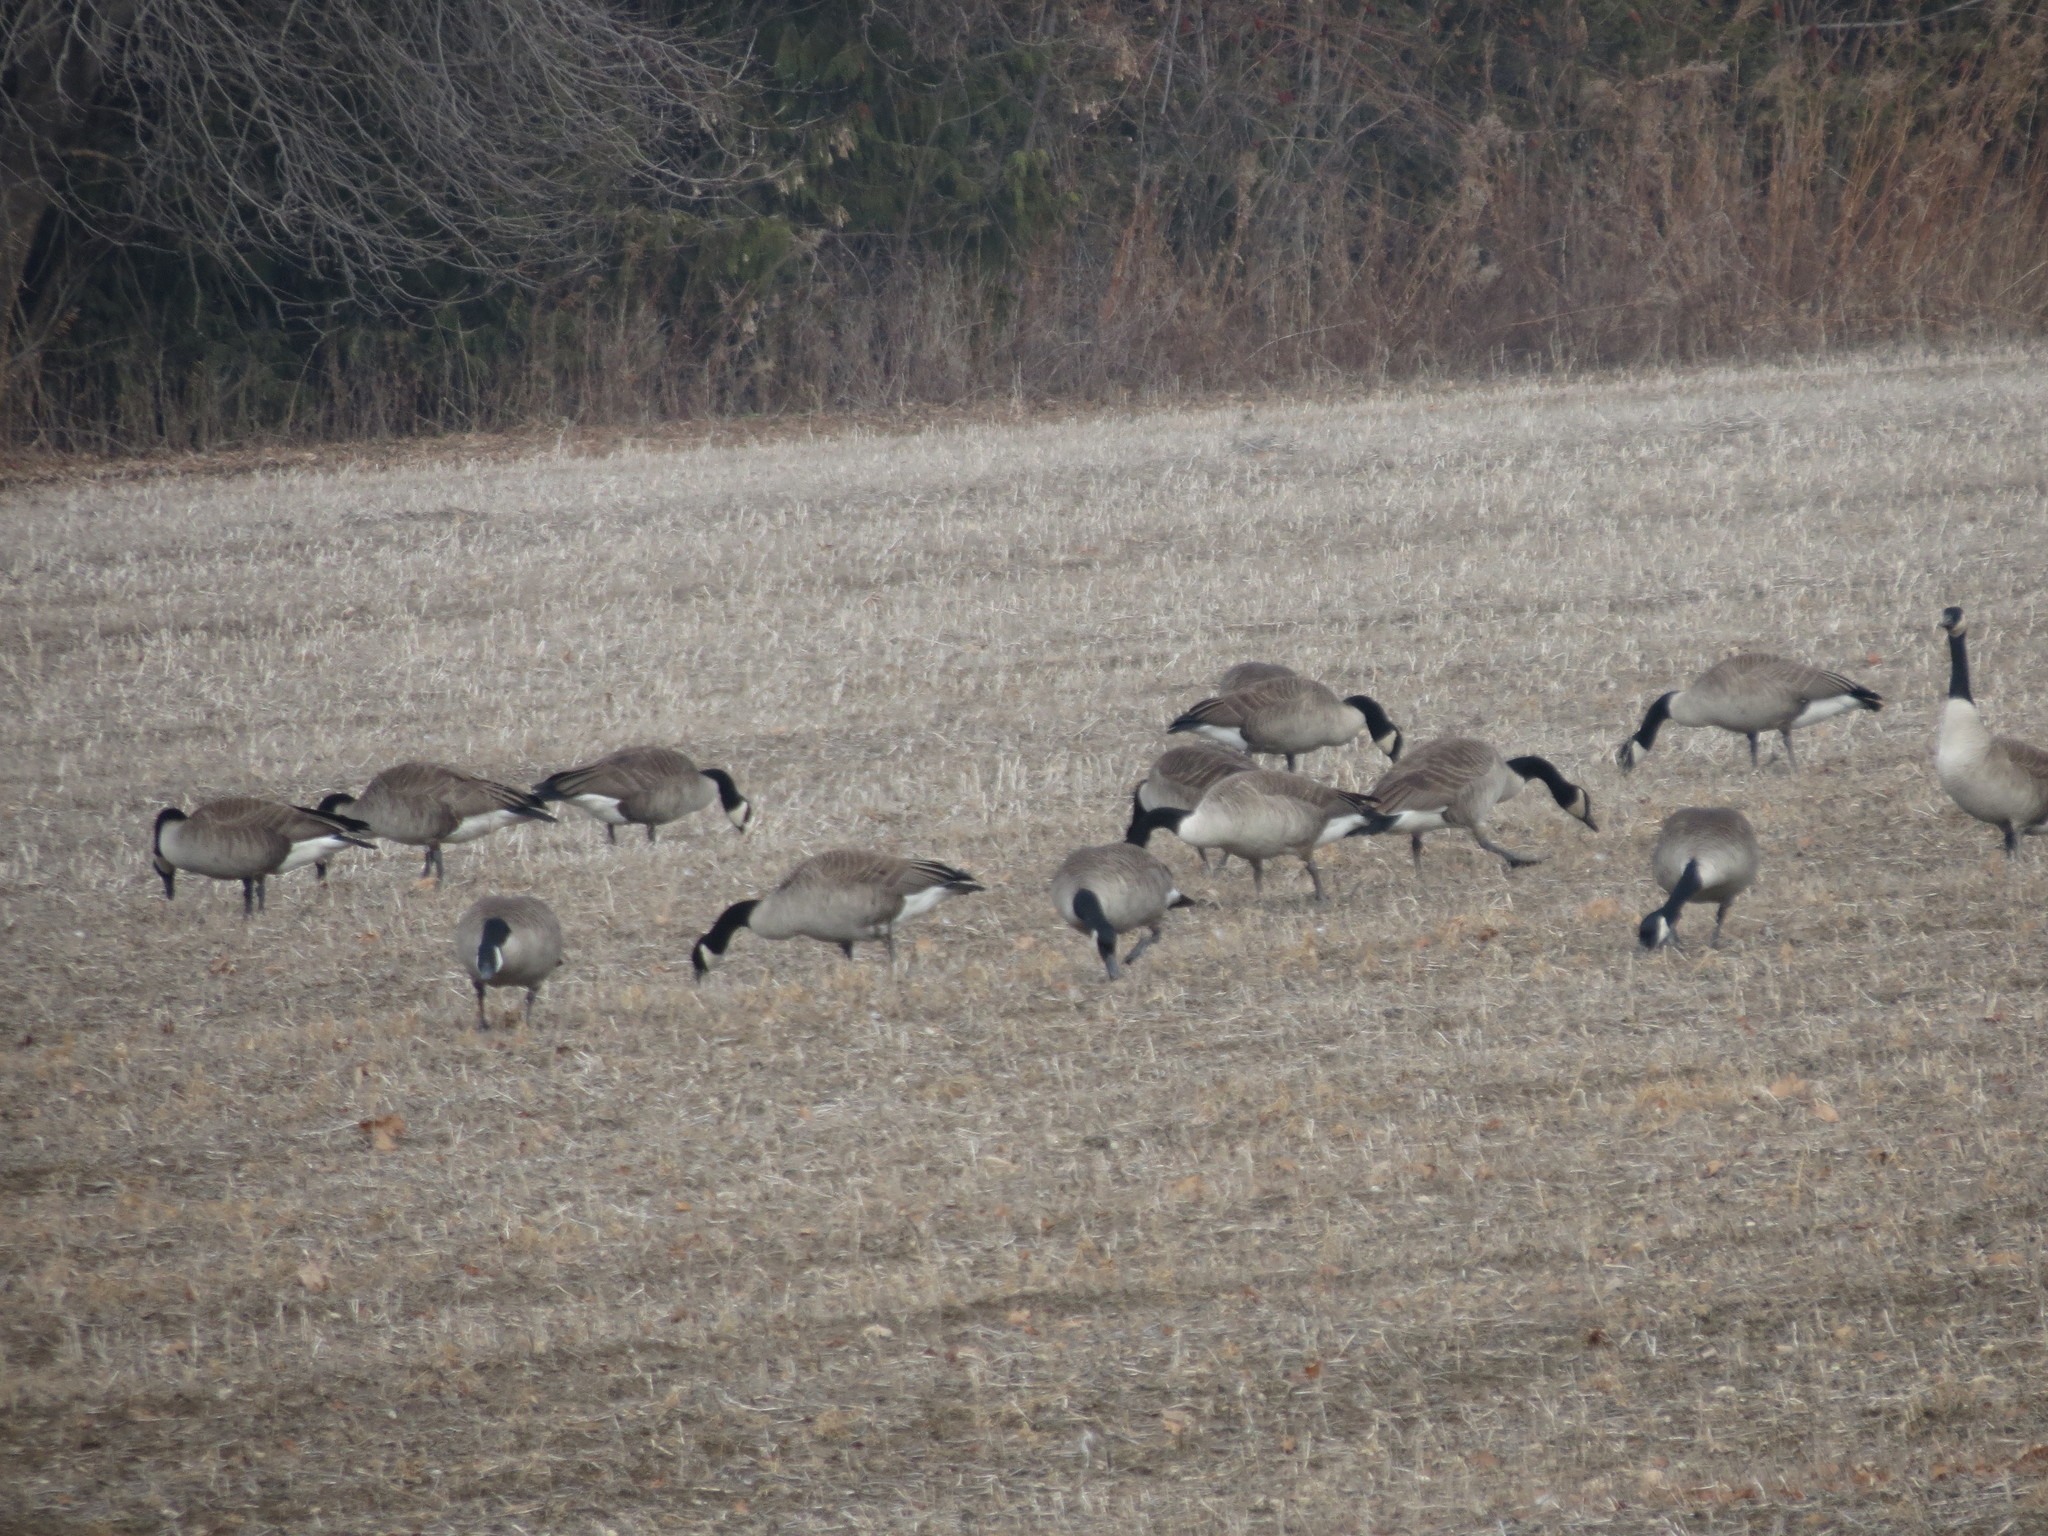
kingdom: Animalia
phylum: Chordata
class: Aves
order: Anseriformes
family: Anatidae
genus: Branta
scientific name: Branta canadensis
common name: Canada goose
